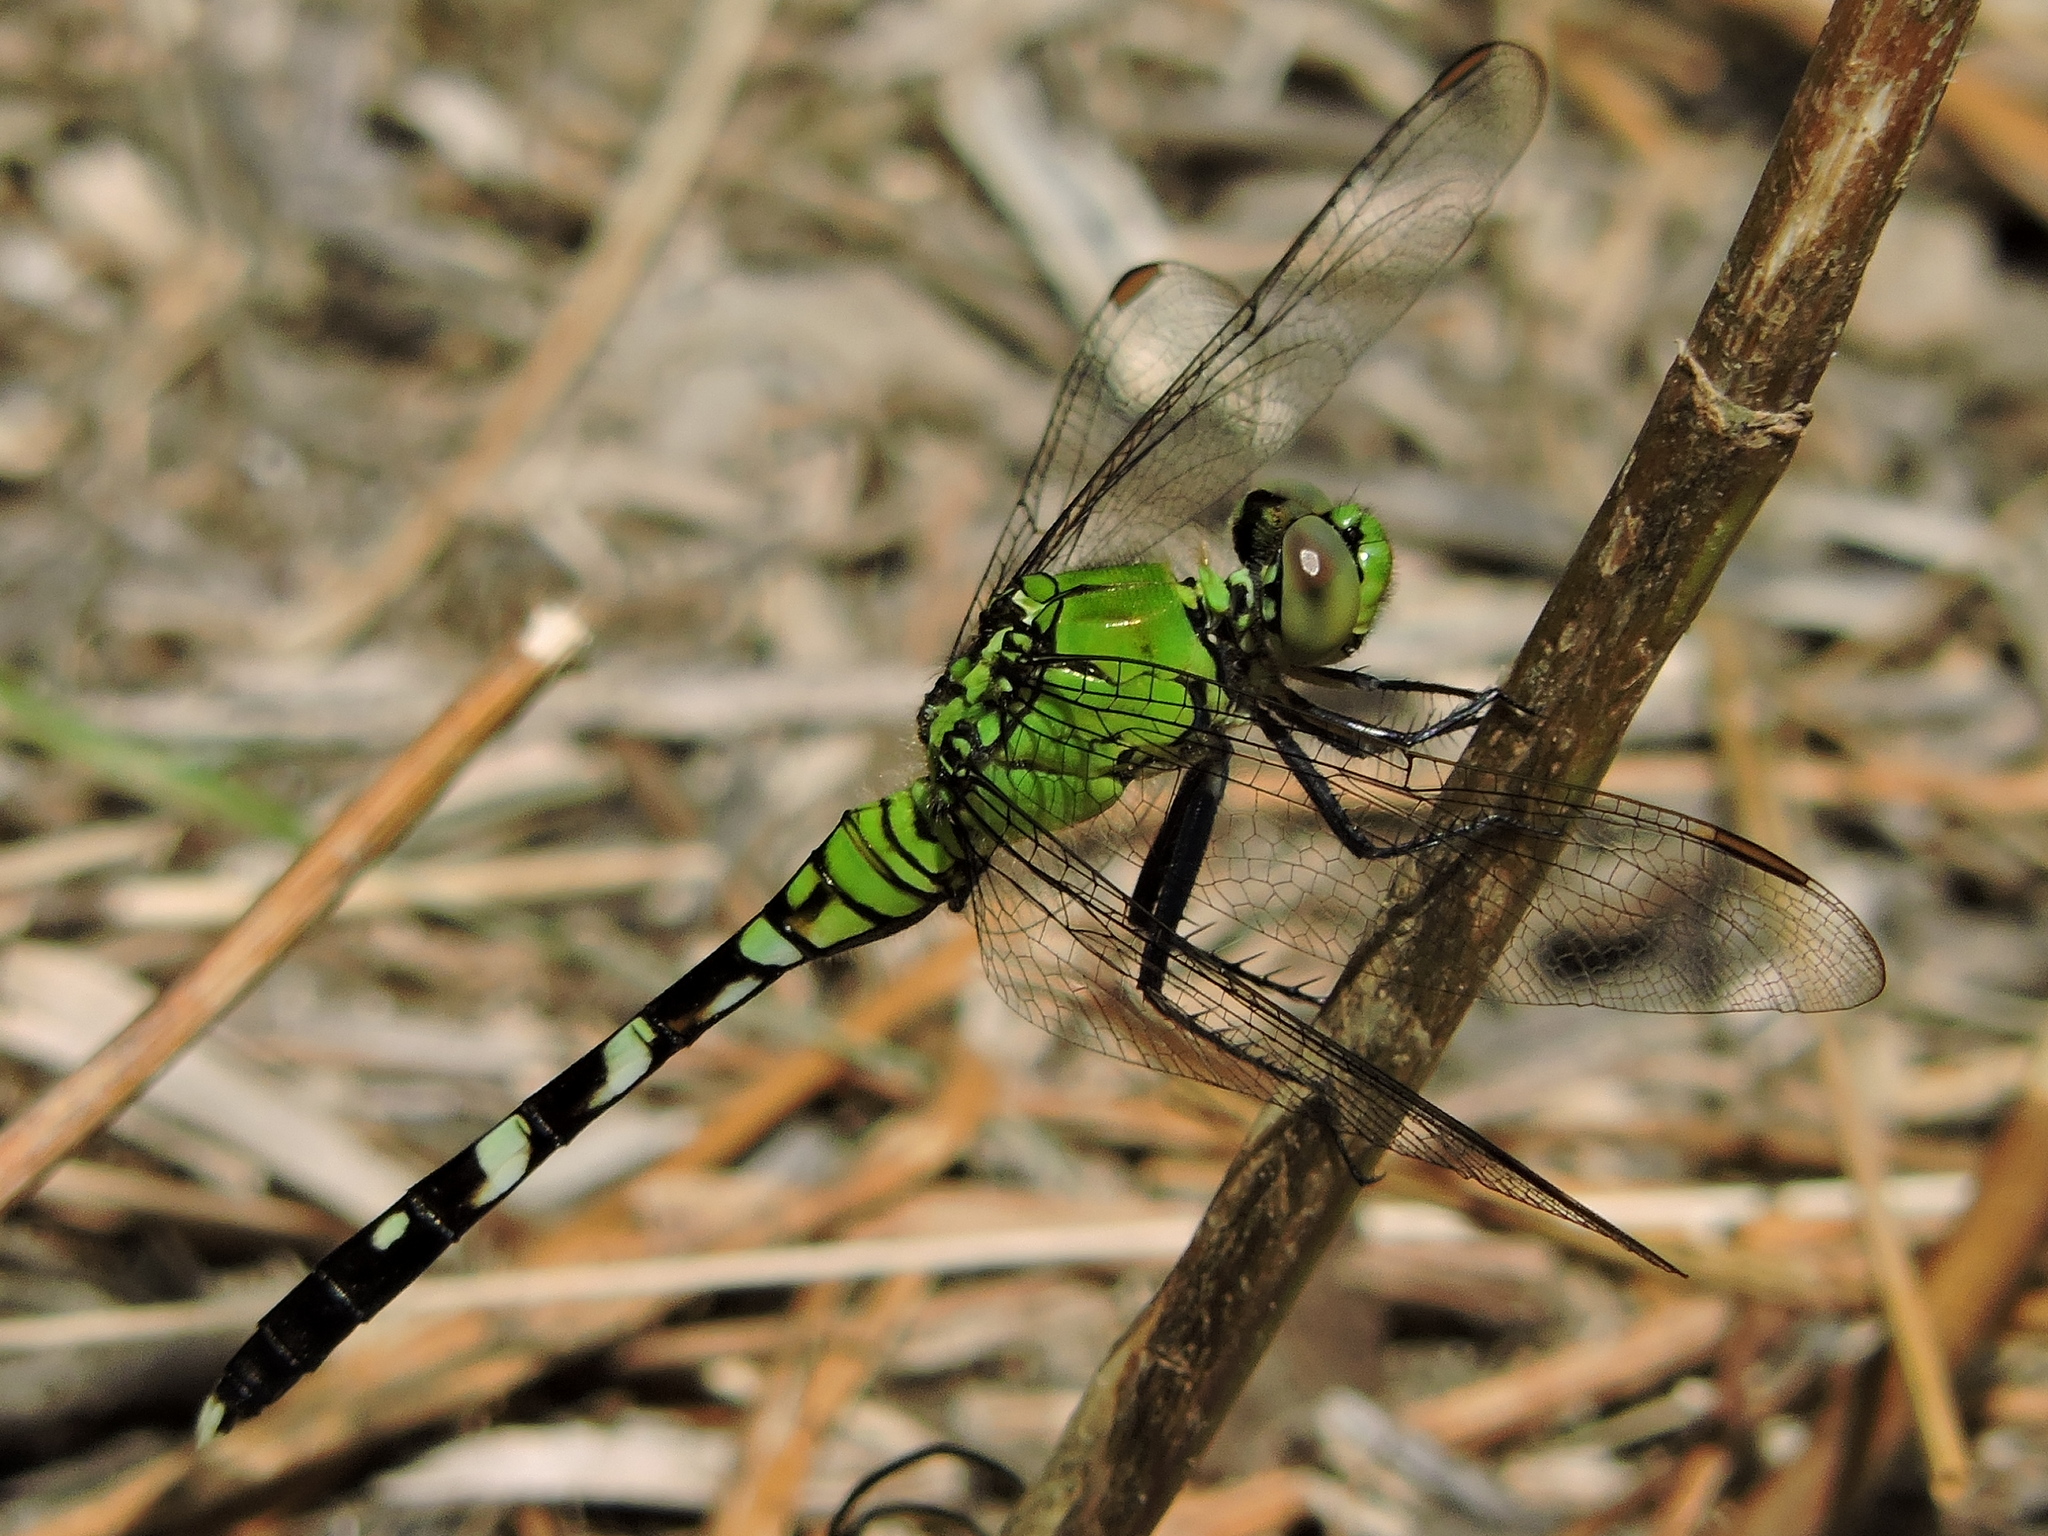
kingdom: Animalia
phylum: Arthropoda
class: Insecta
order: Odonata
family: Libellulidae
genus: Erythemis
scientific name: Erythemis simplicicollis
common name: Eastern pondhawk
